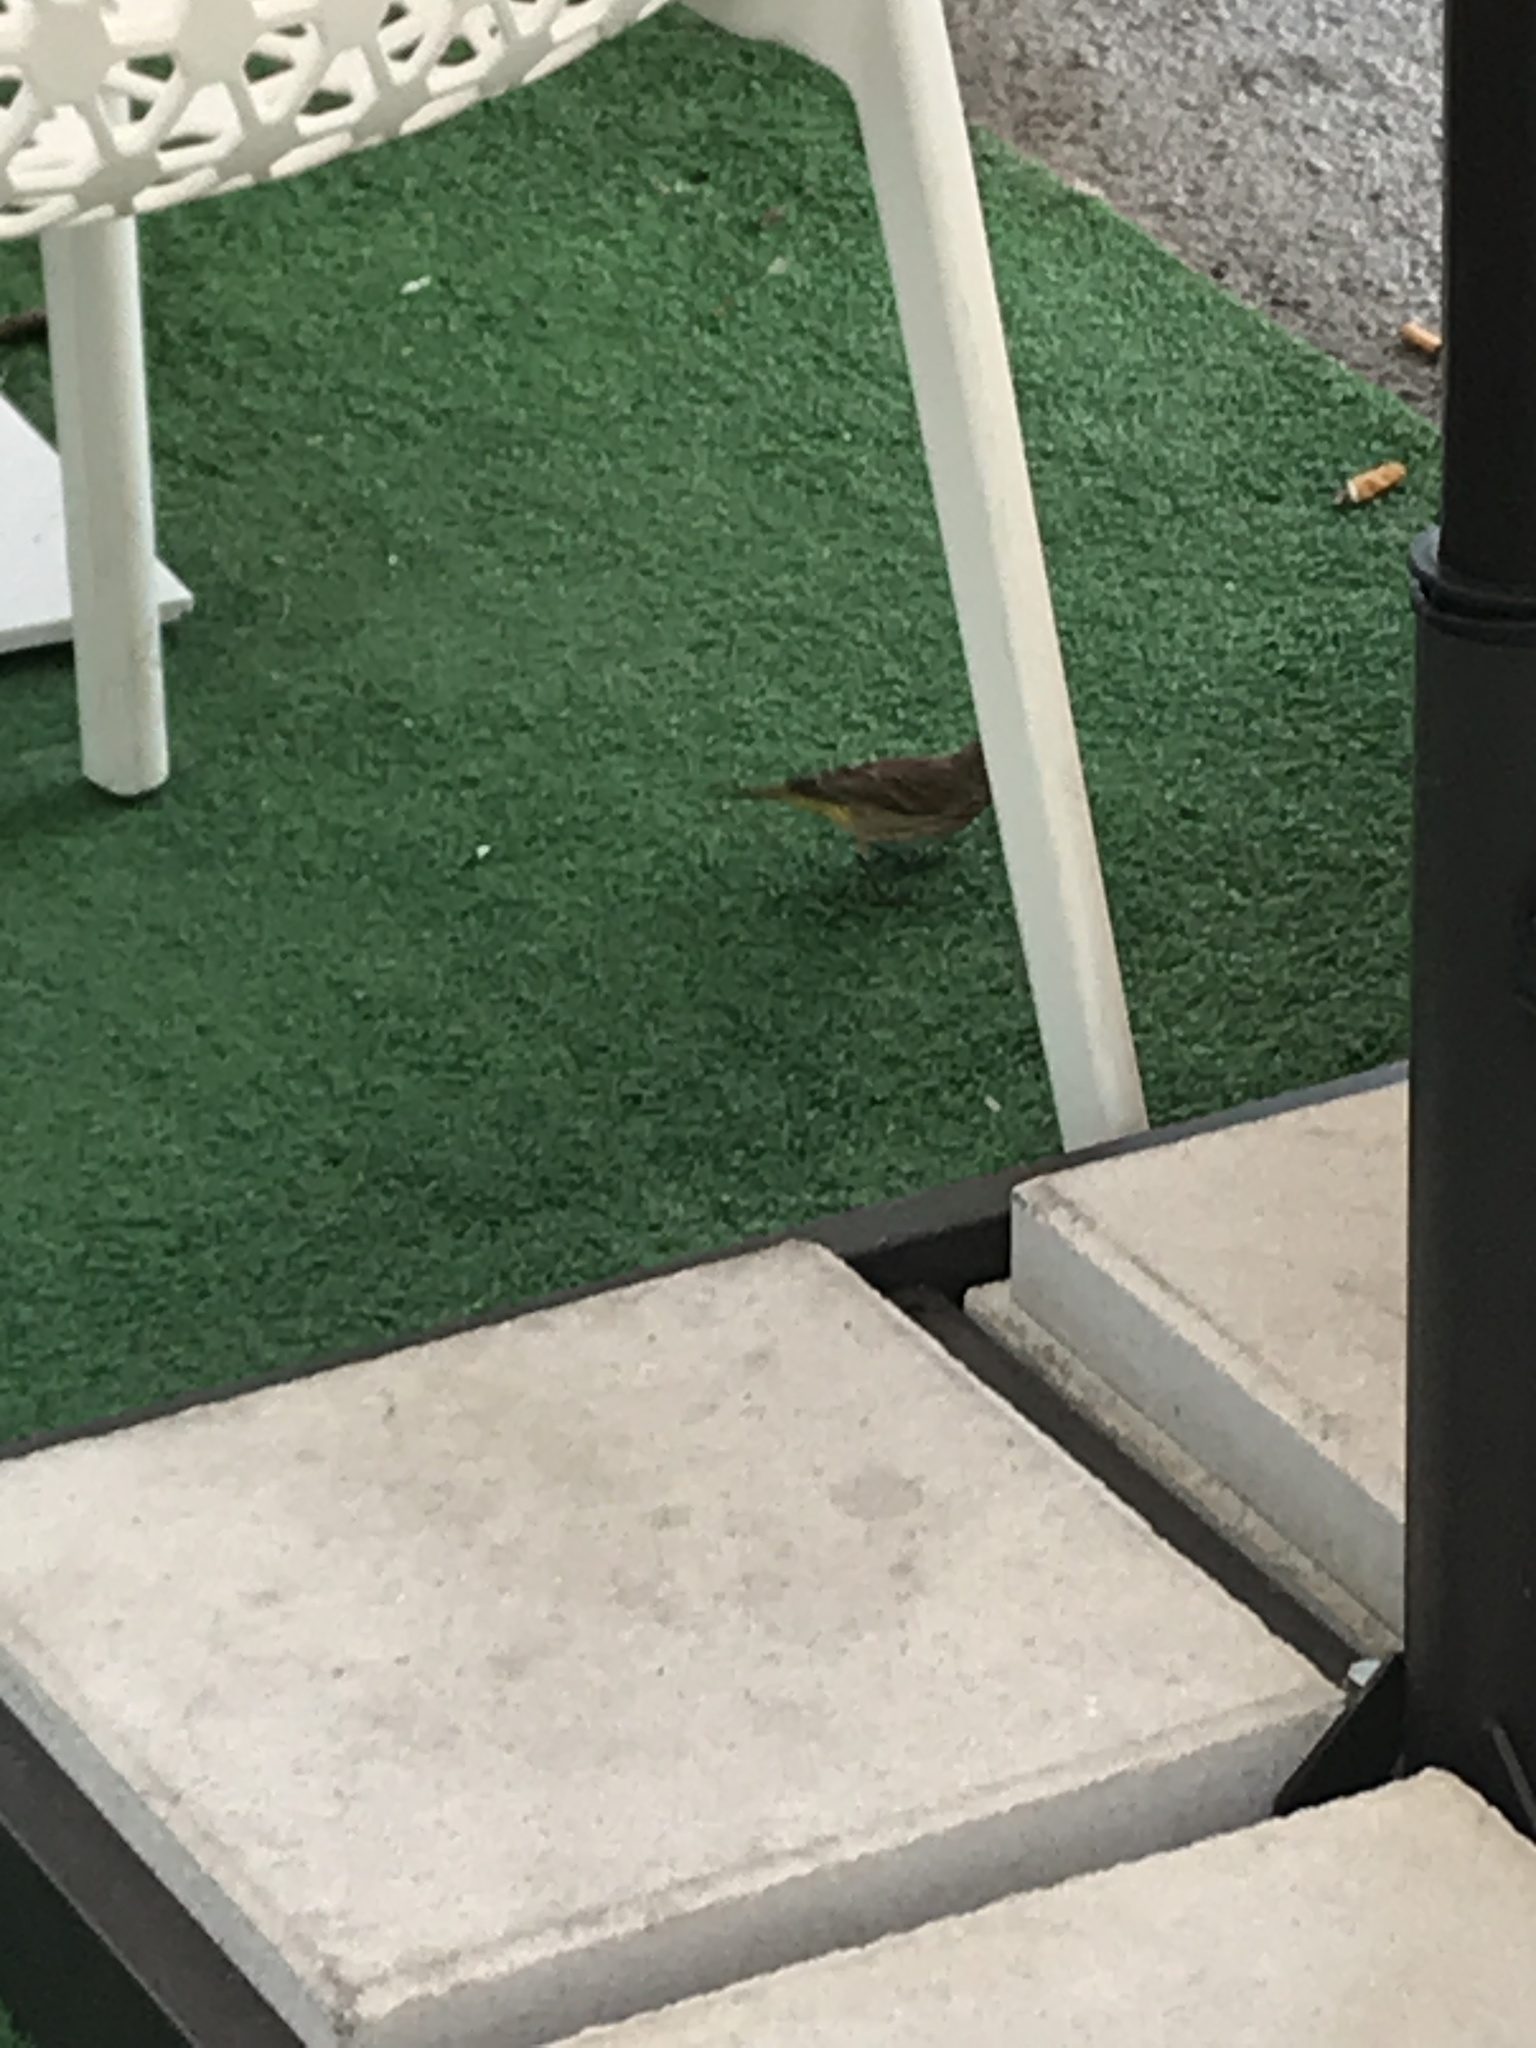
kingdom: Animalia
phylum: Chordata
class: Aves
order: Passeriformes
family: Parulidae
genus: Setophaga
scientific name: Setophaga palmarum
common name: Palm warbler
